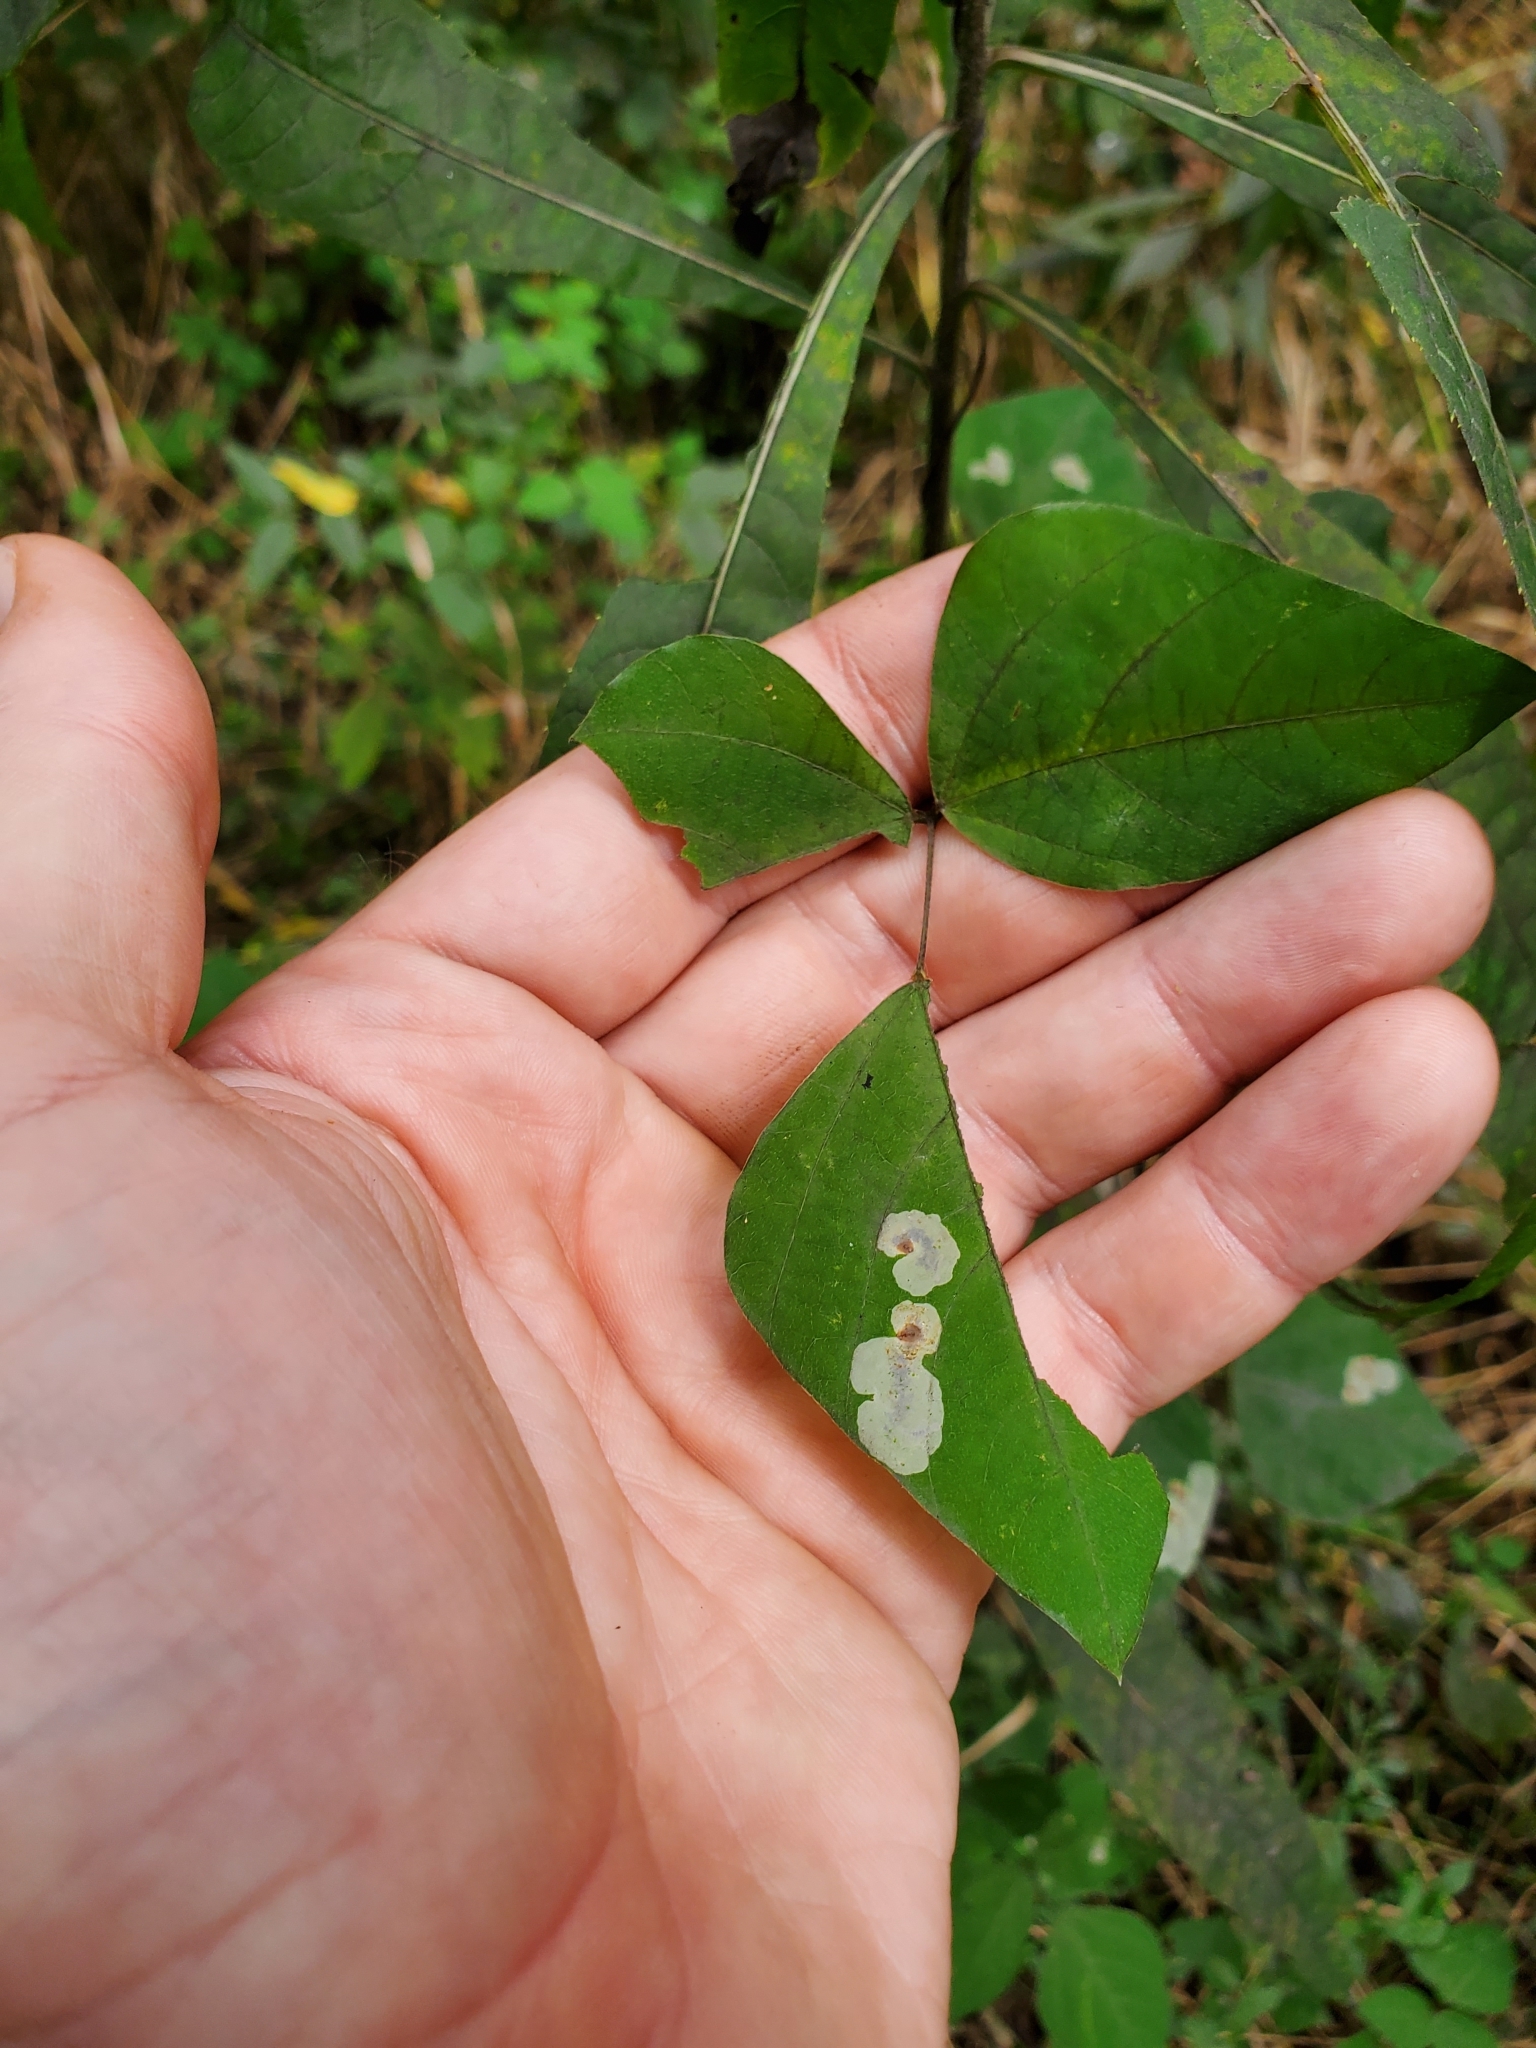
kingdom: Animalia
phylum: Arthropoda
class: Insecta
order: Lepidoptera
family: Gracillariidae
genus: Anarsioses
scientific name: Anarsioses aberrans
